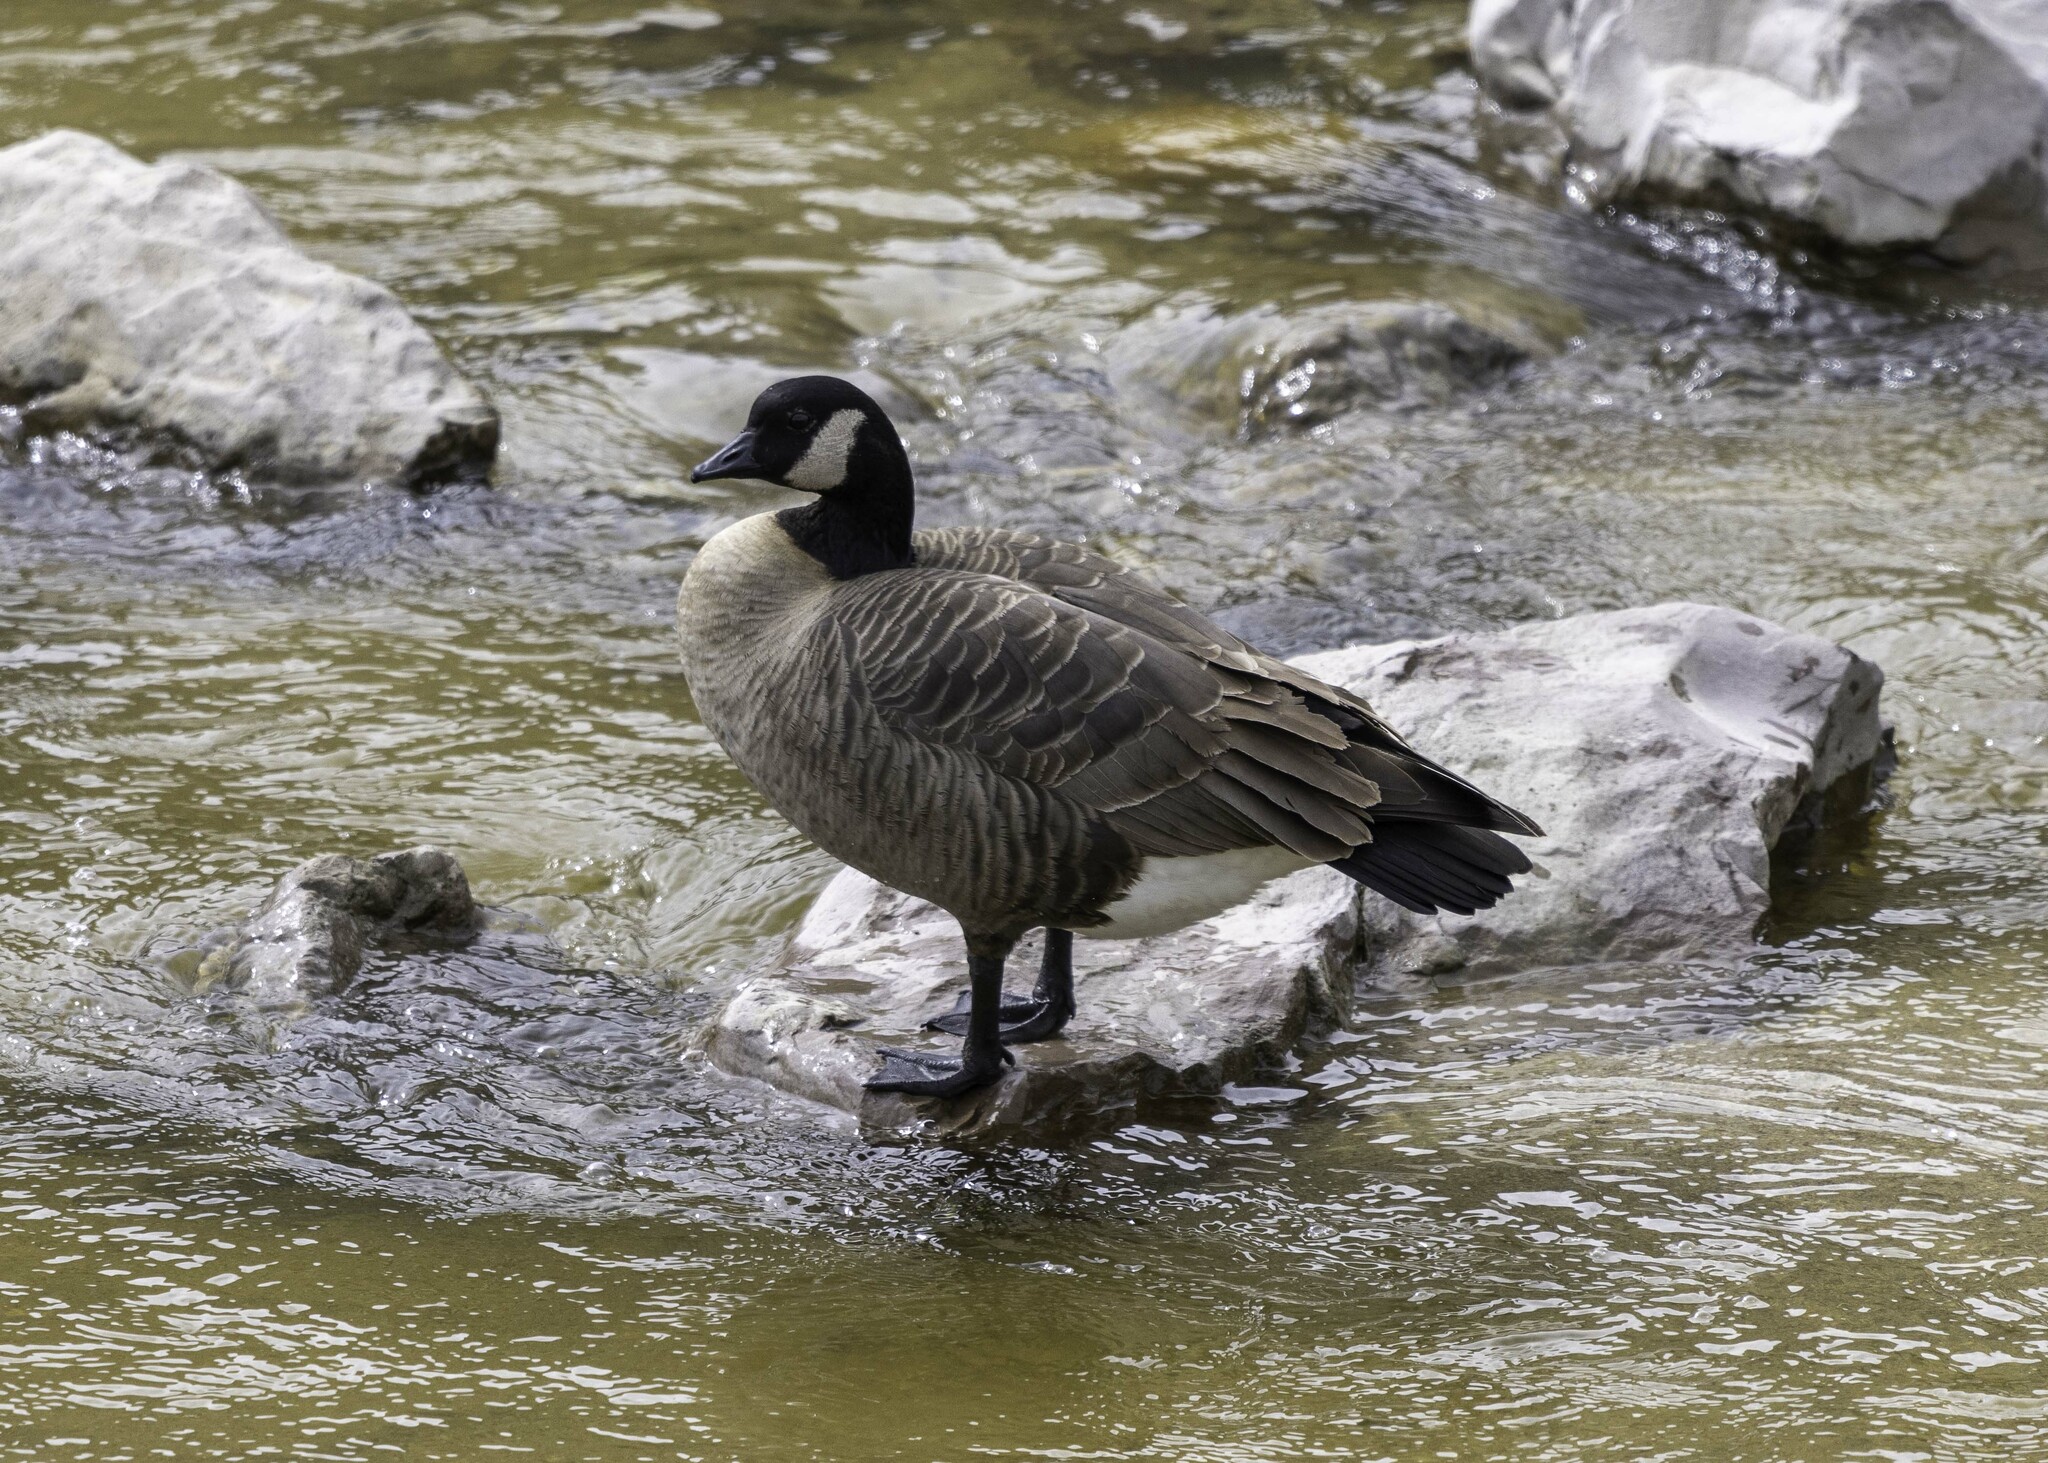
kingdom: Animalia
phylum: Chordata
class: Aves
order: Anseriformes
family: Anatidae
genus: Branta
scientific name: Branta canadensis
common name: Canada goose
